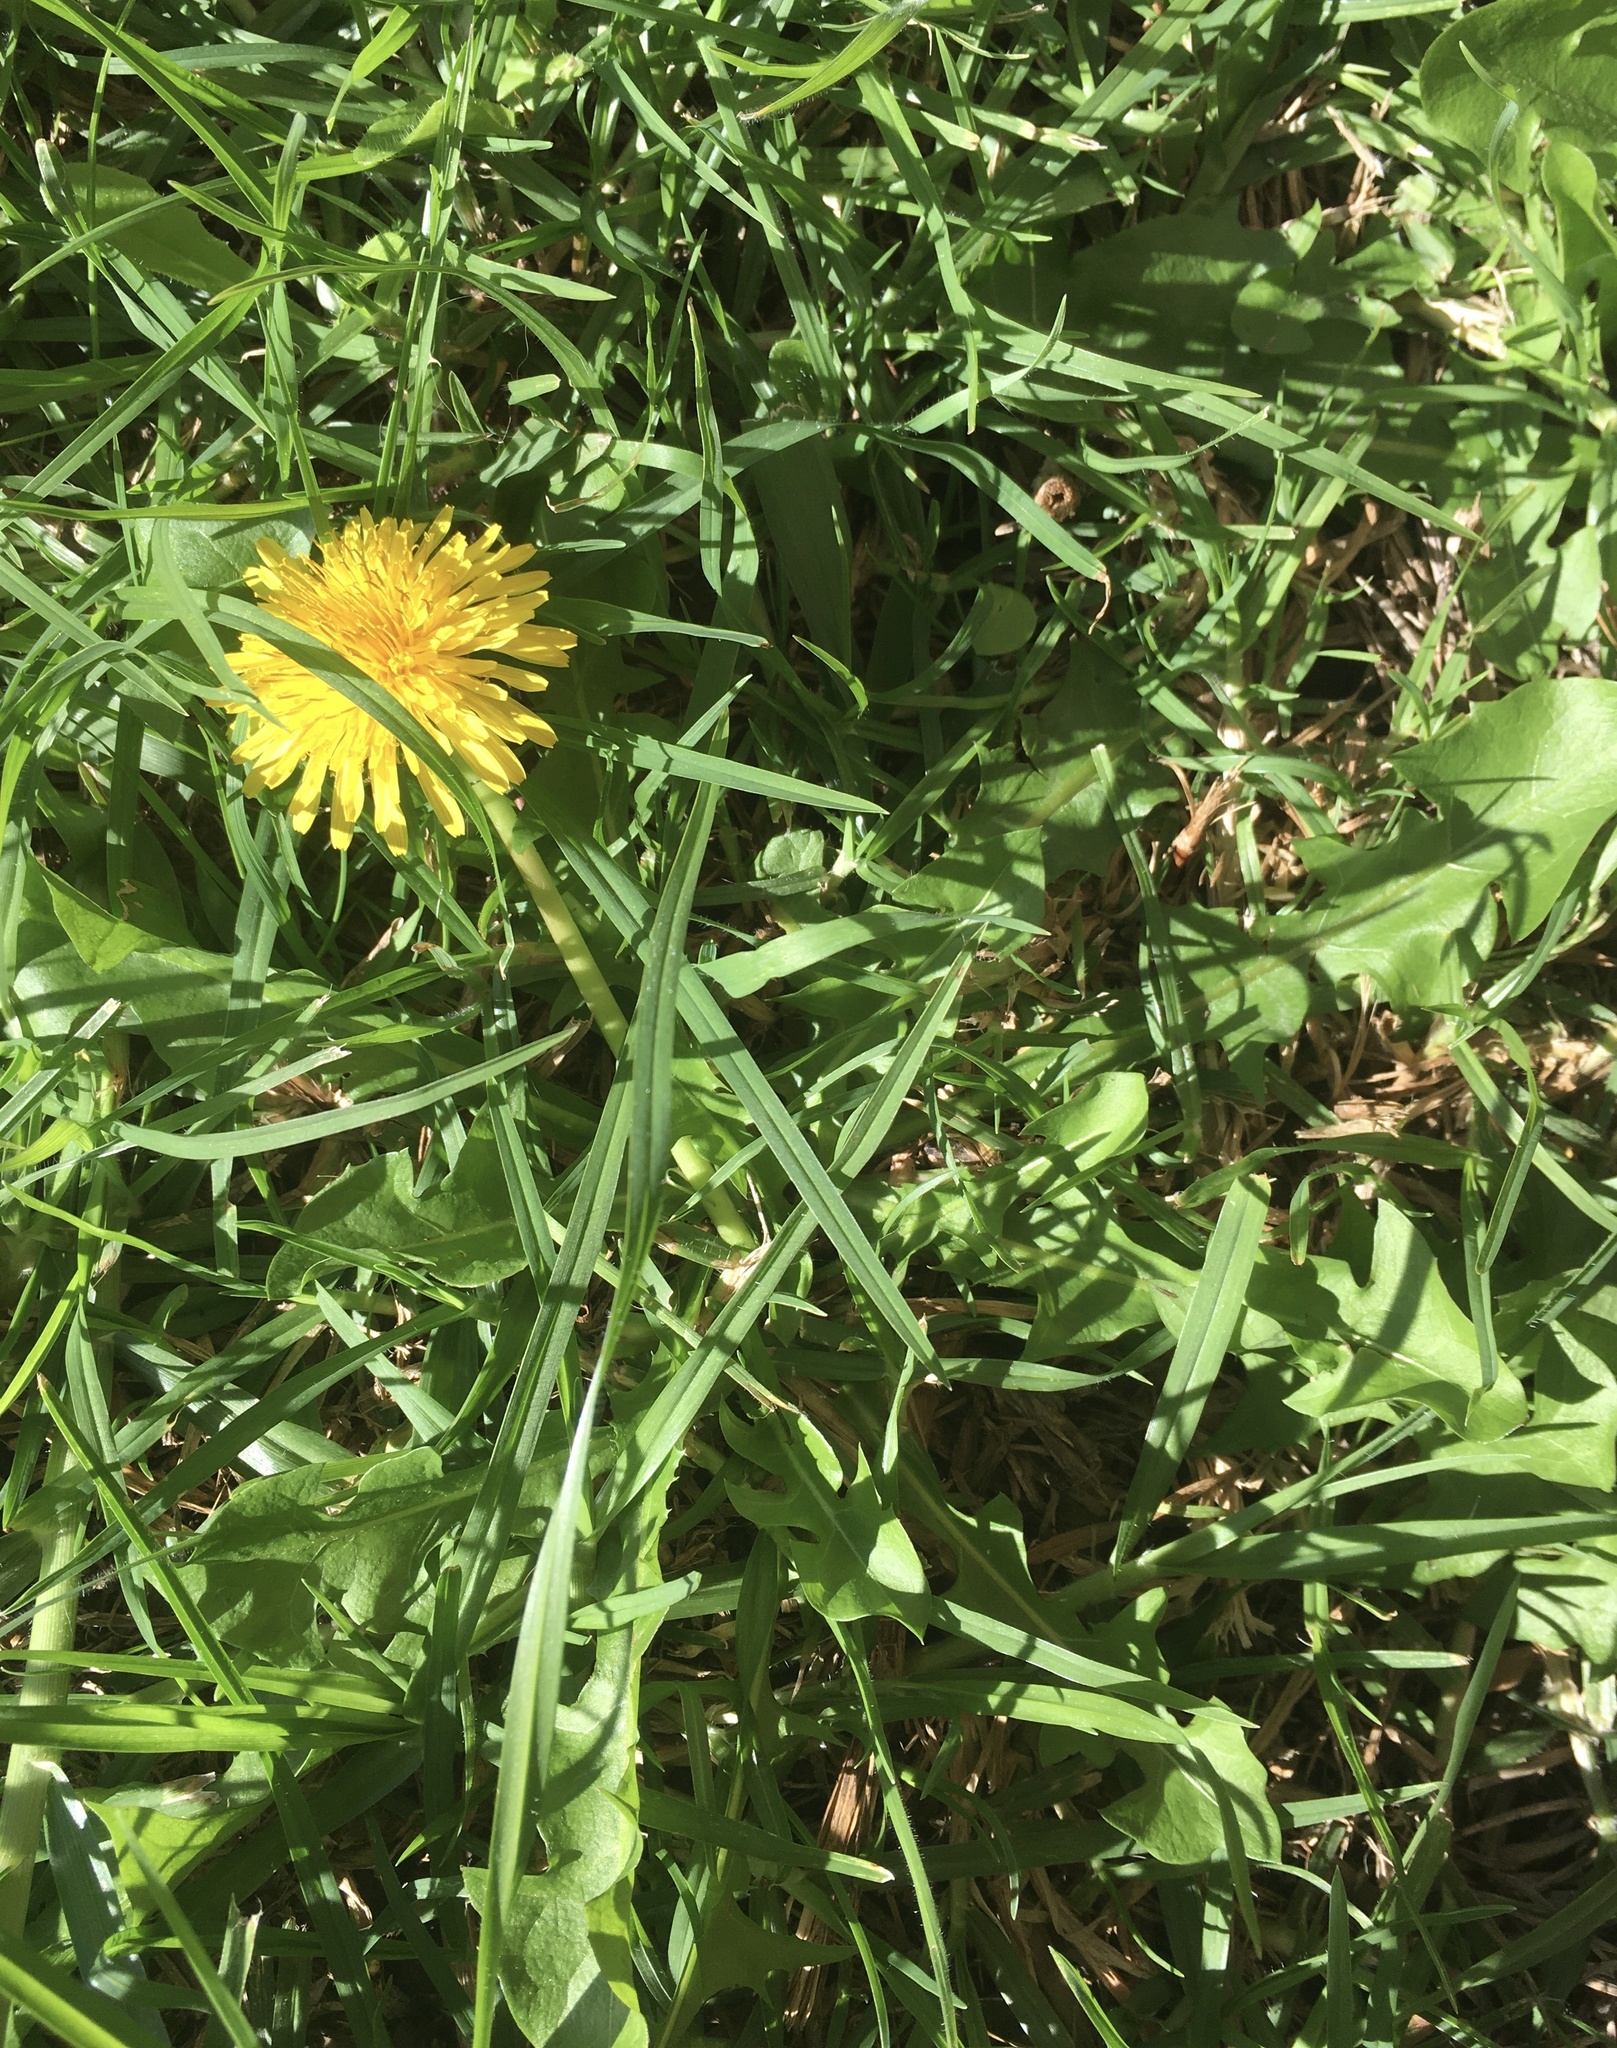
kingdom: Plantae
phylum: Tracheophyta
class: Magnoliopsida
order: Asterales
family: Asteraceae
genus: Taraxacum
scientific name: Taraxacum officinale
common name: Common dandelion
